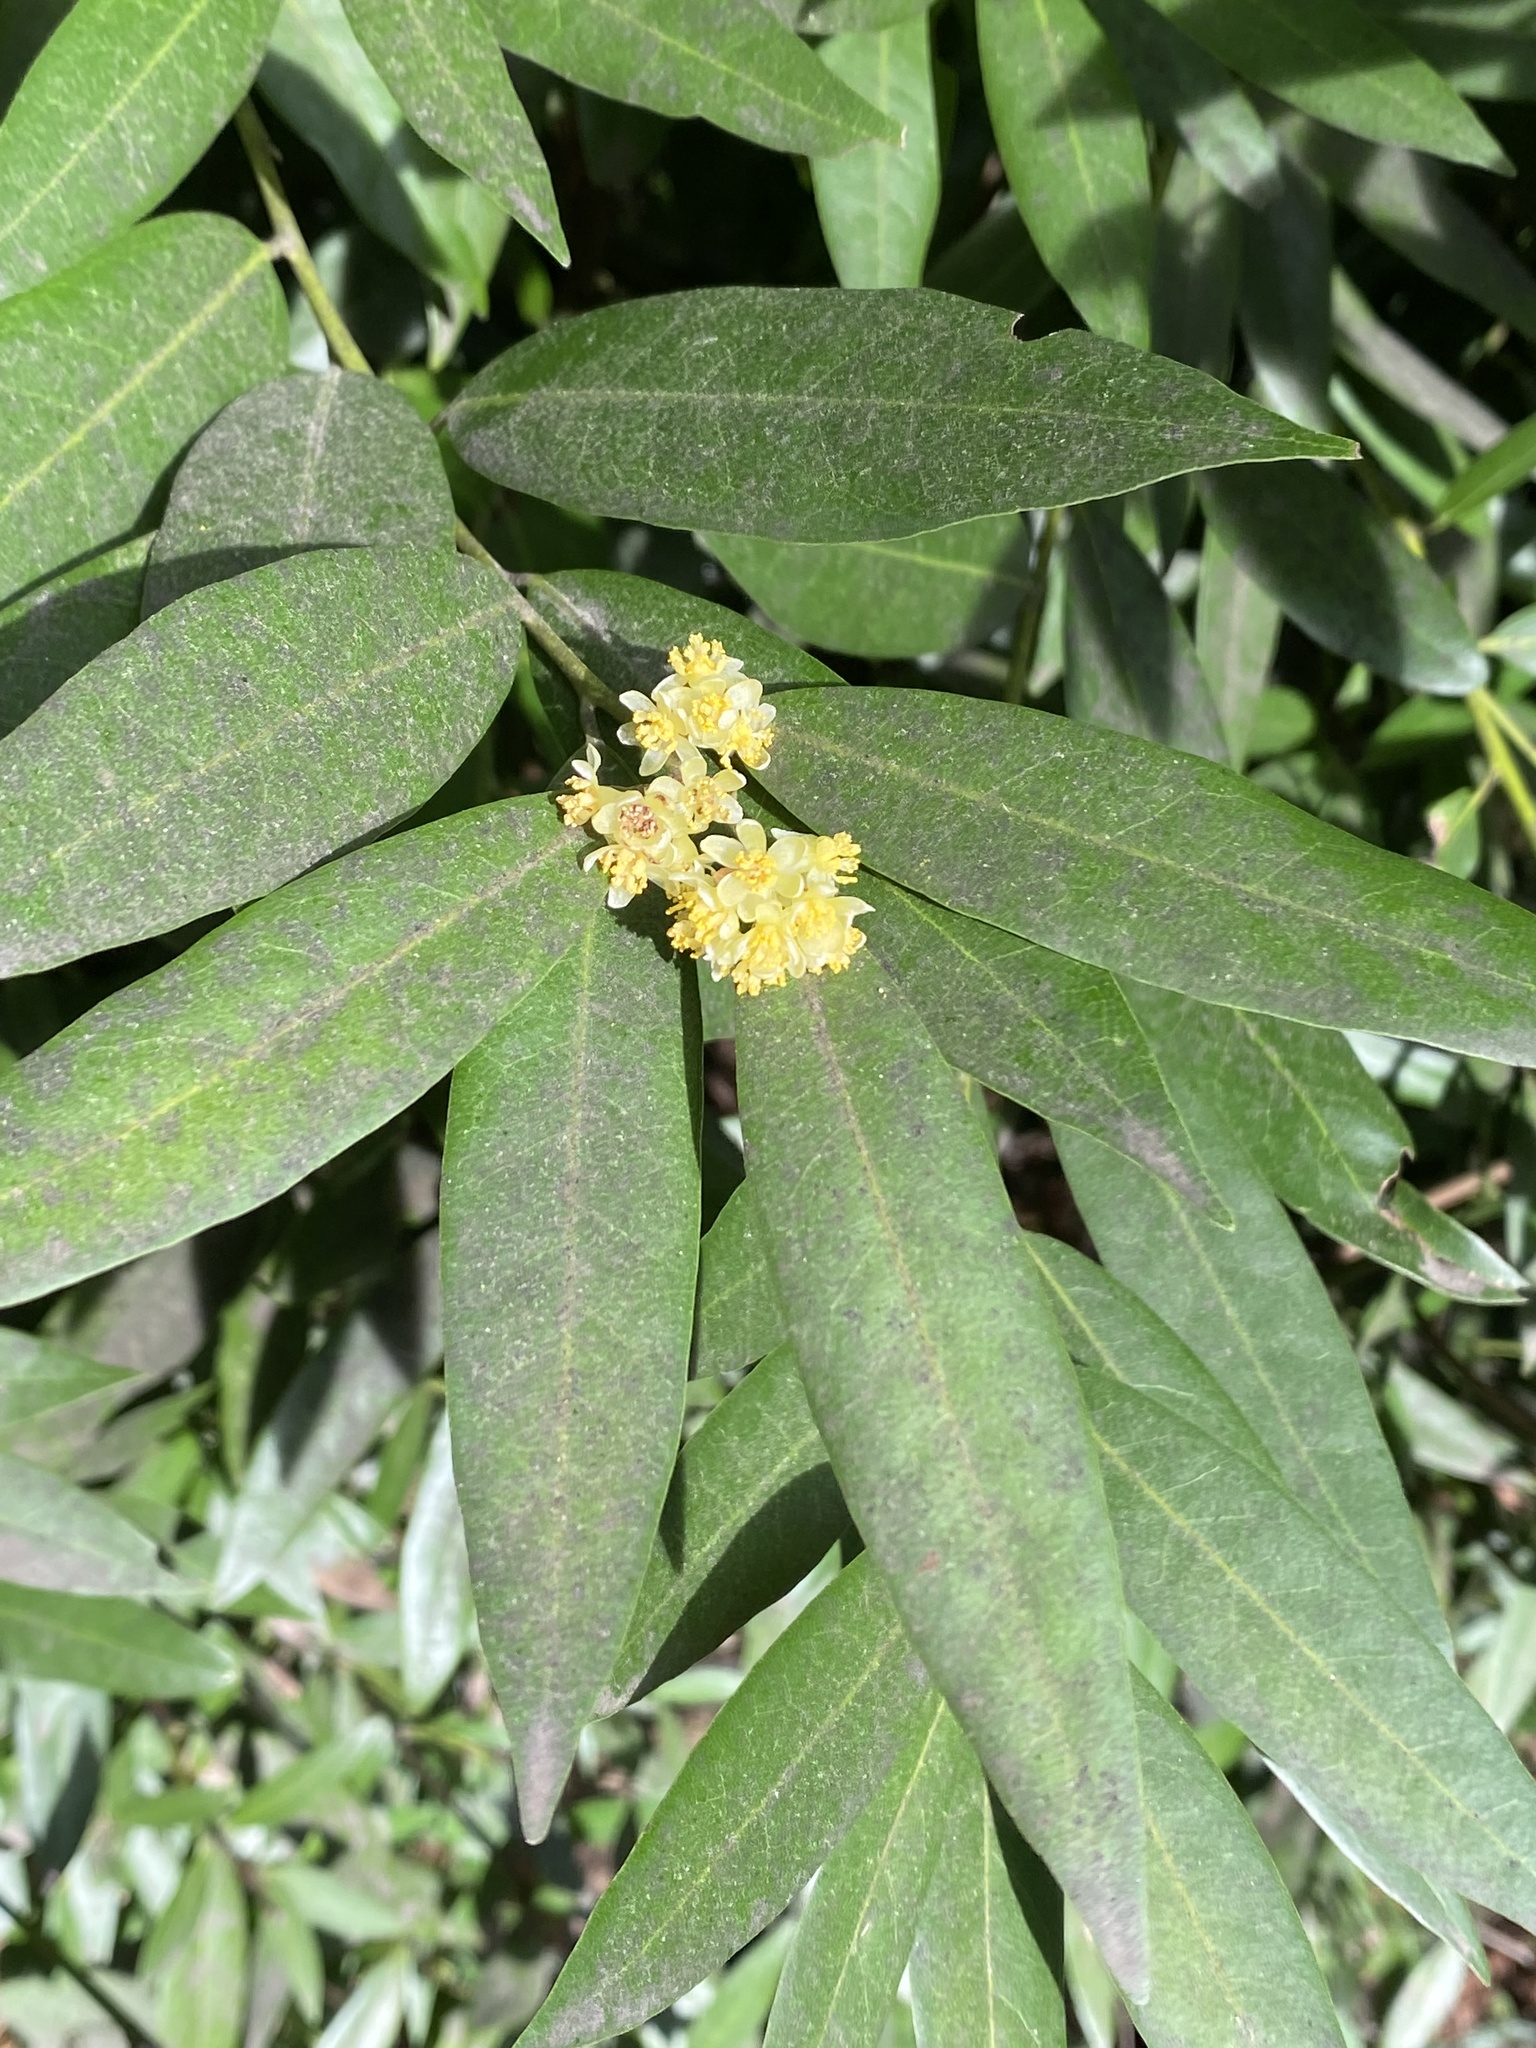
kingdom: Plantae
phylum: Tracheophyta
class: Magnoliopsida
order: Laurales
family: Lauraceae
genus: Umbellularia
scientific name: Umbellularia californica
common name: California bay
